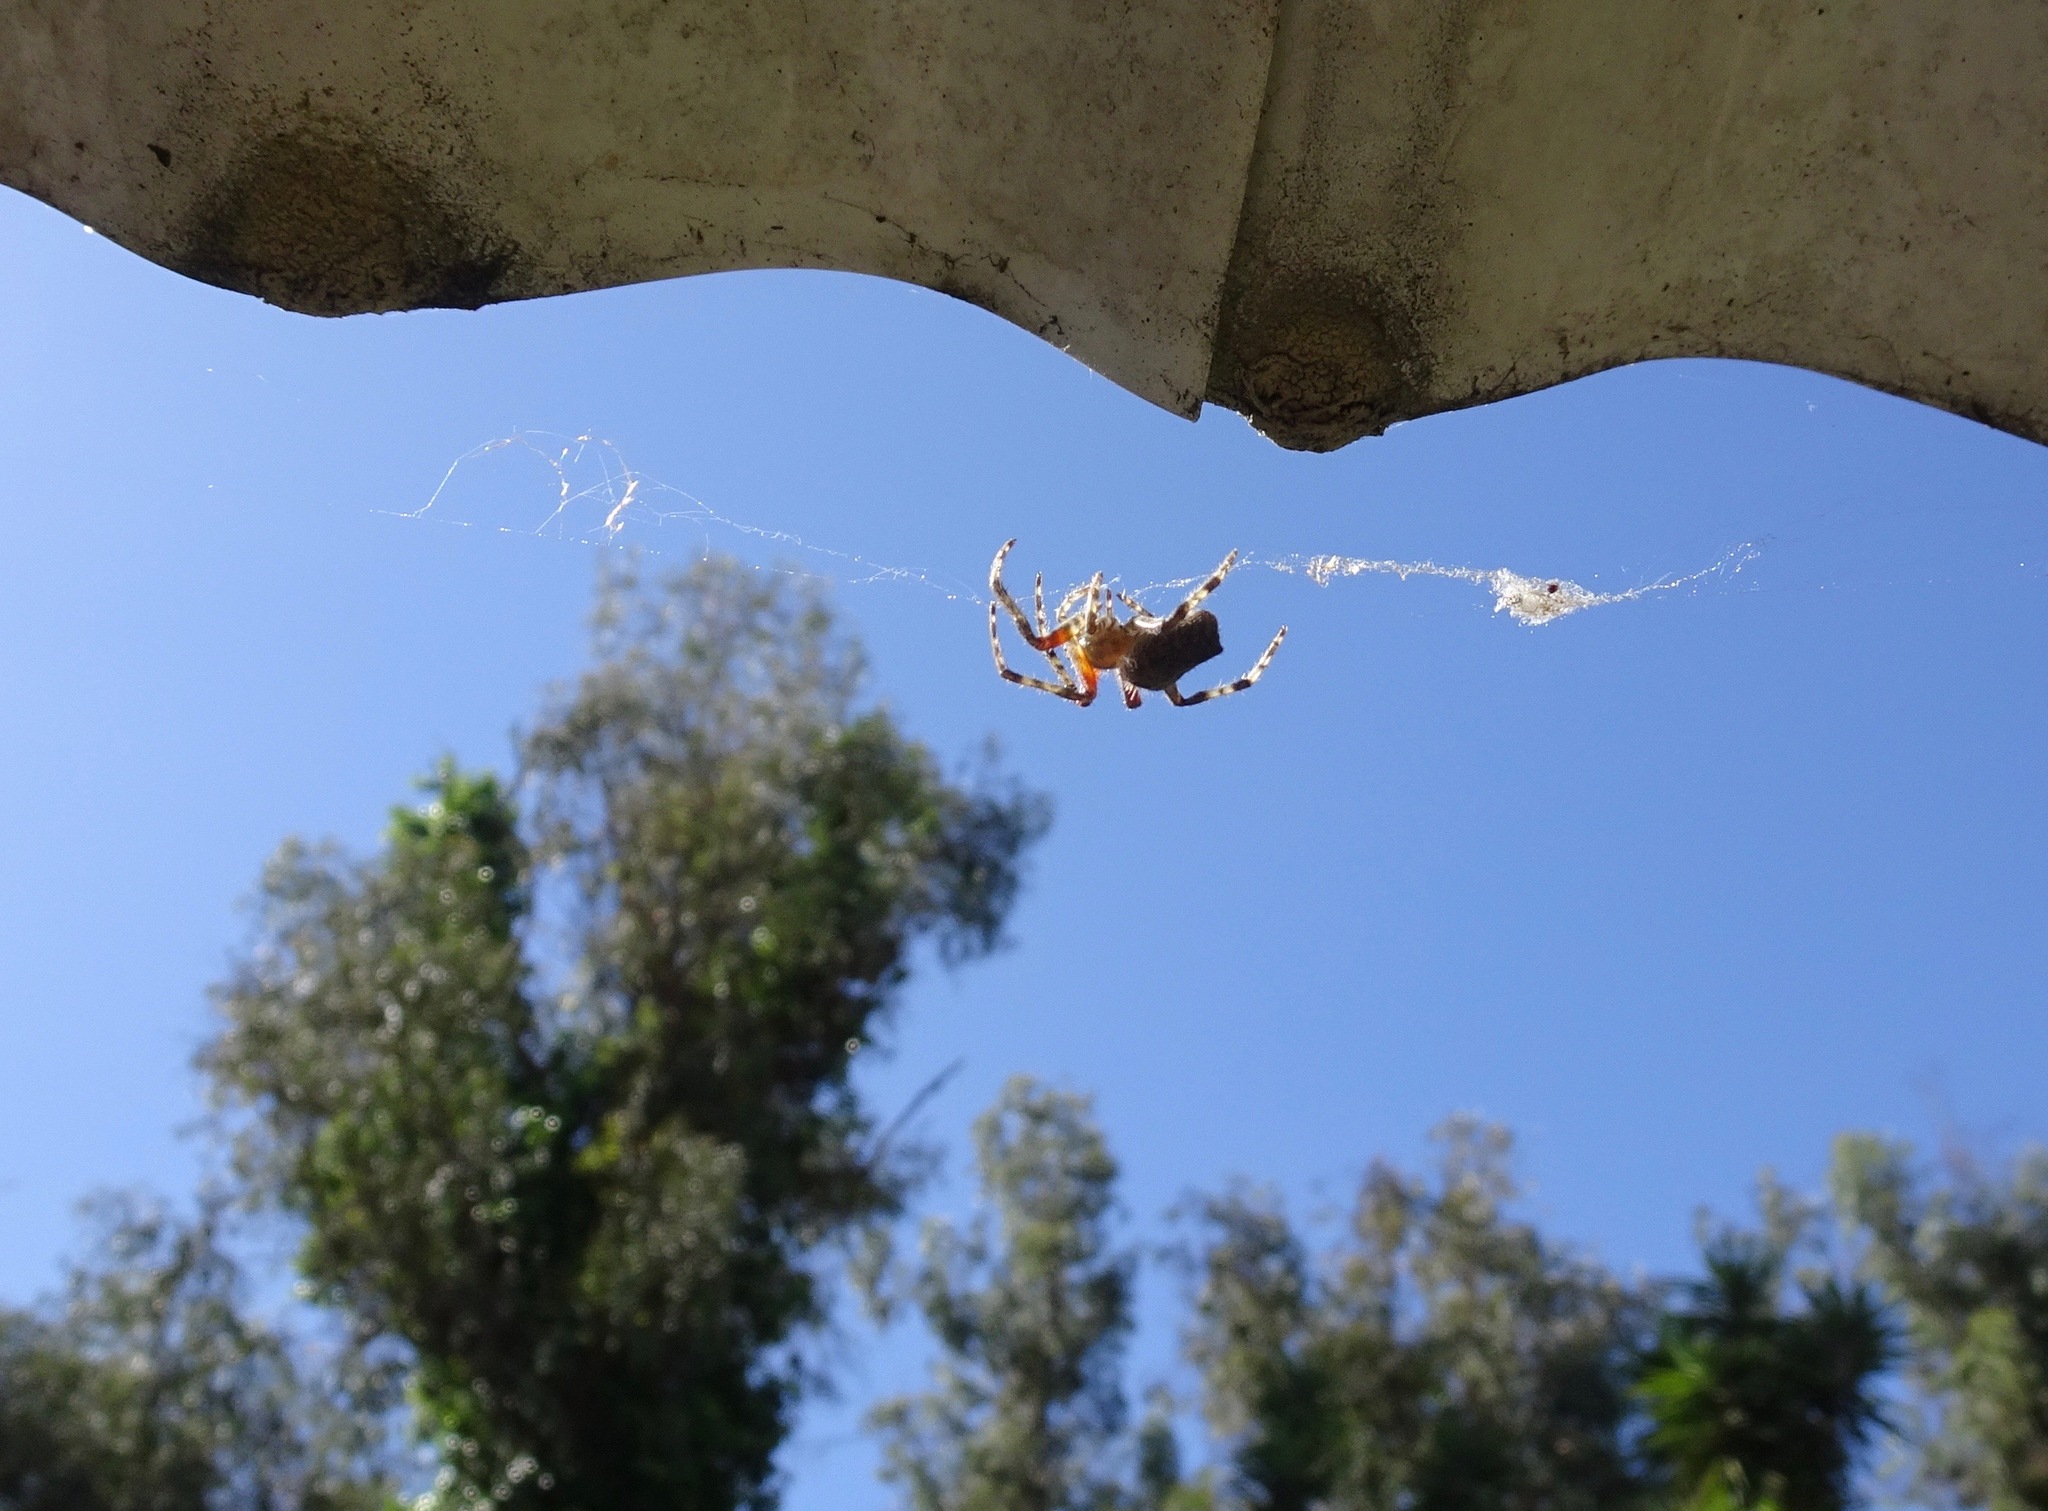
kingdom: Animalia
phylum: Arthropoda
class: Arachnida
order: Araneae
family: Araneidae
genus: Eriophora
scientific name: Eriophora edax
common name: Orb weavers
